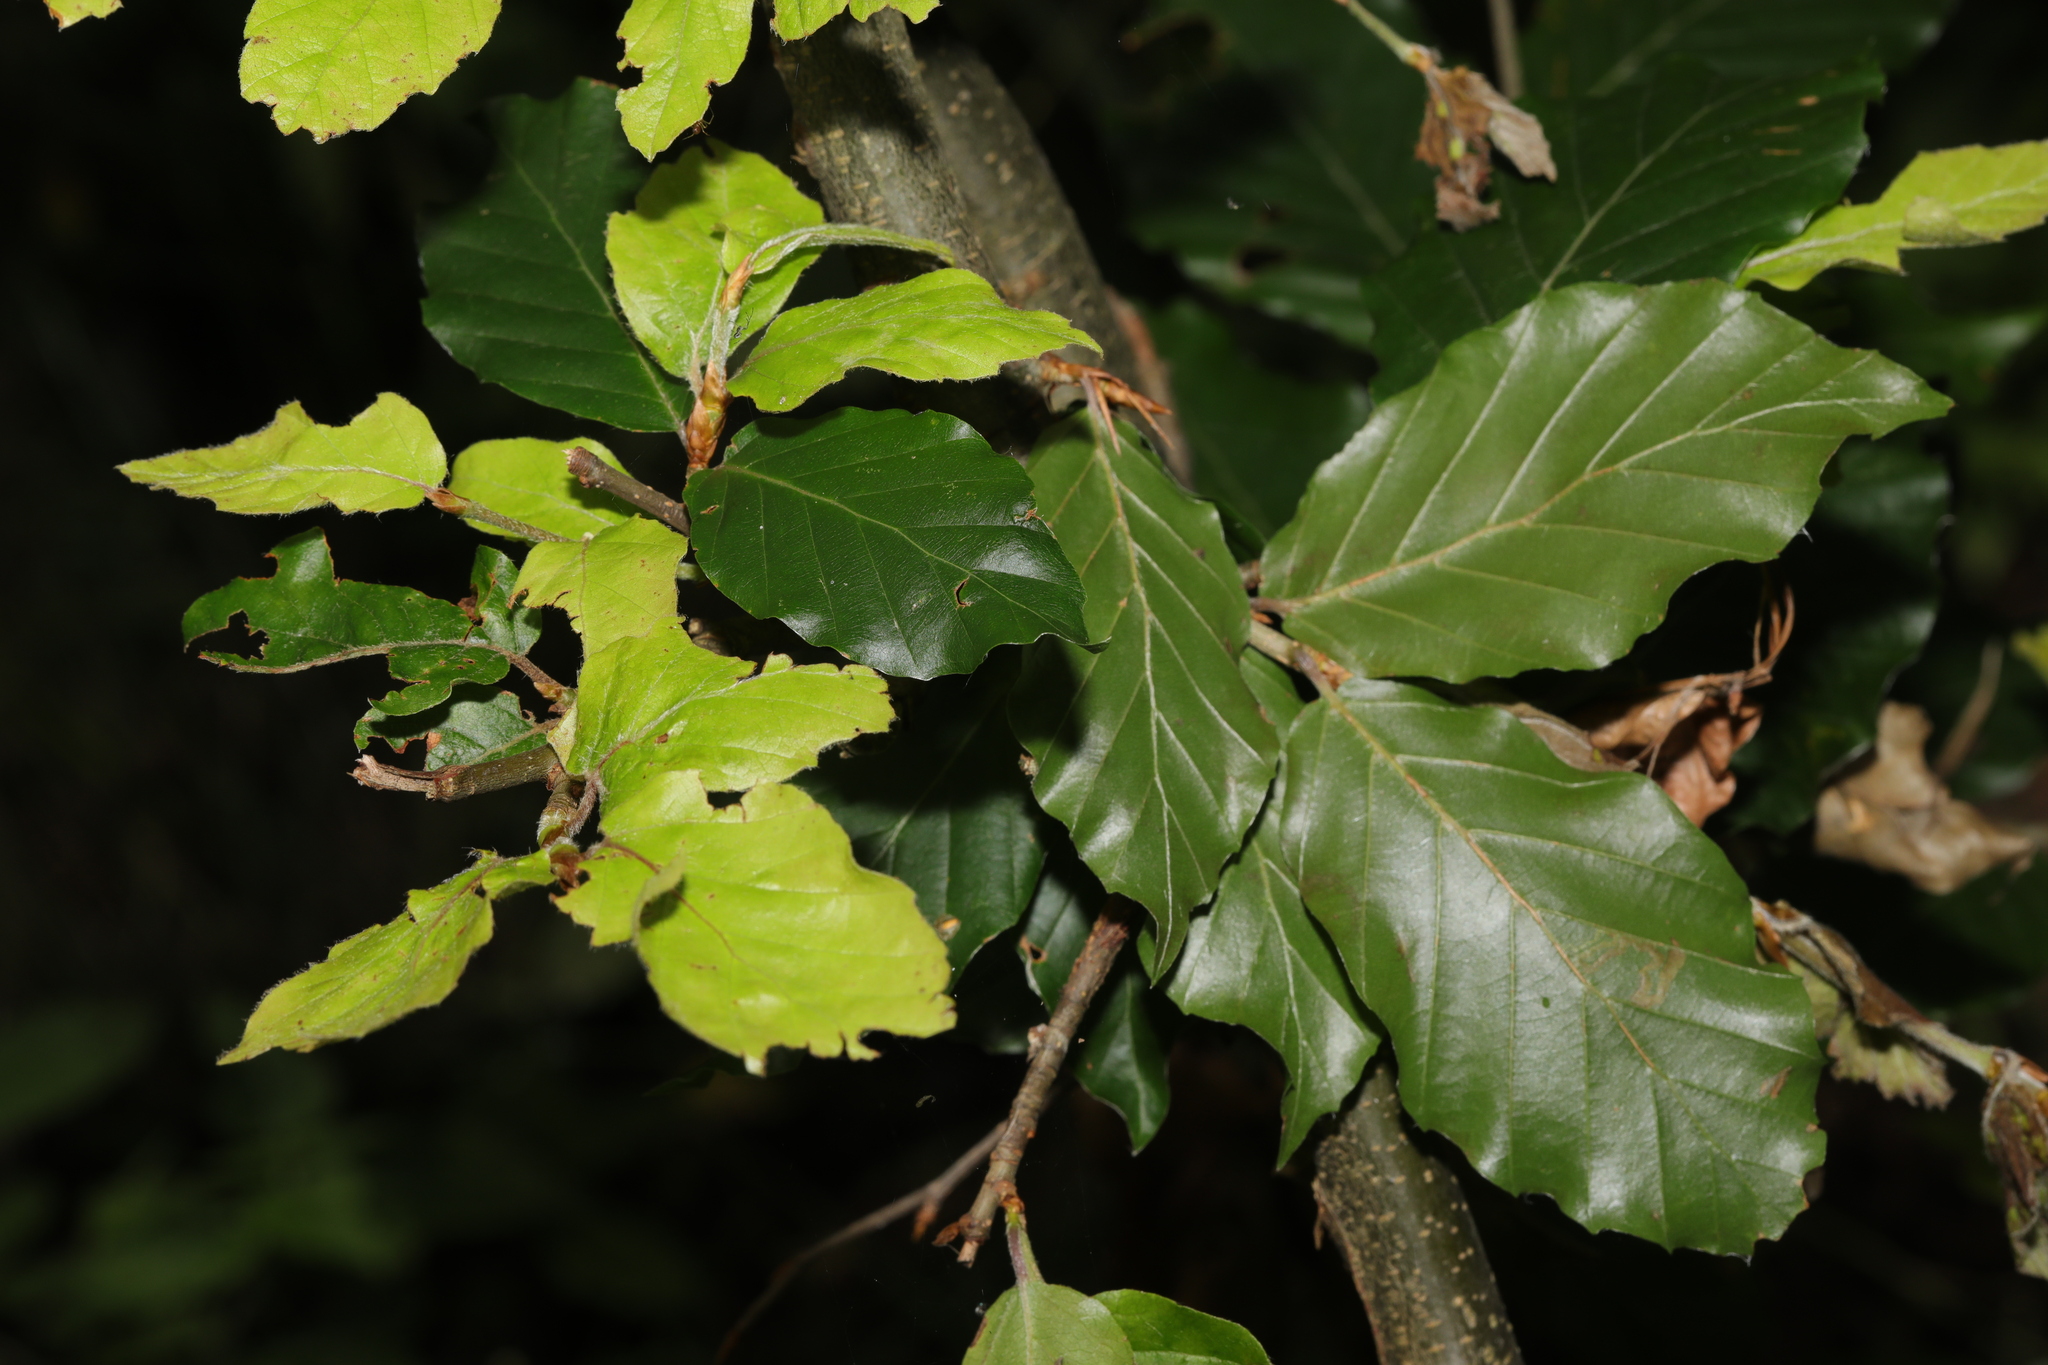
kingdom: Plantae
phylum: Tracheophyta
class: Magnoliopsida
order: Fagales
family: Fagaceae
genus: Fagus
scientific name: Fagus sylvatica
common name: Beech
